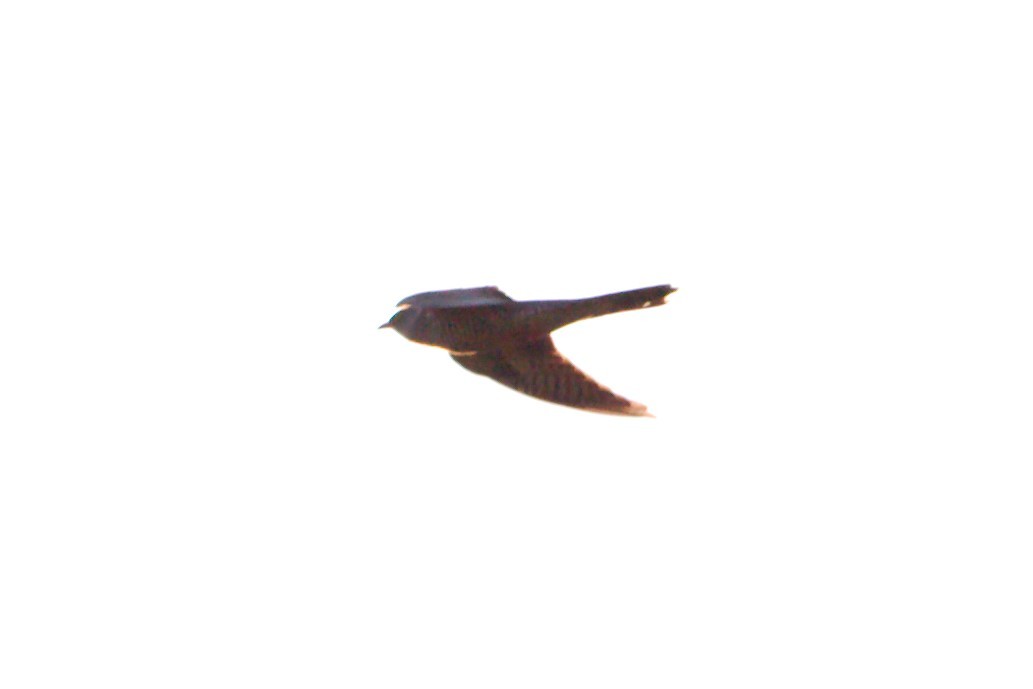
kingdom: Animalia
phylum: Chordata
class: Aves
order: Cuculiformes
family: Cuculidae
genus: Cuculus
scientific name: Cuculus canorus
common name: Common cuckoo
